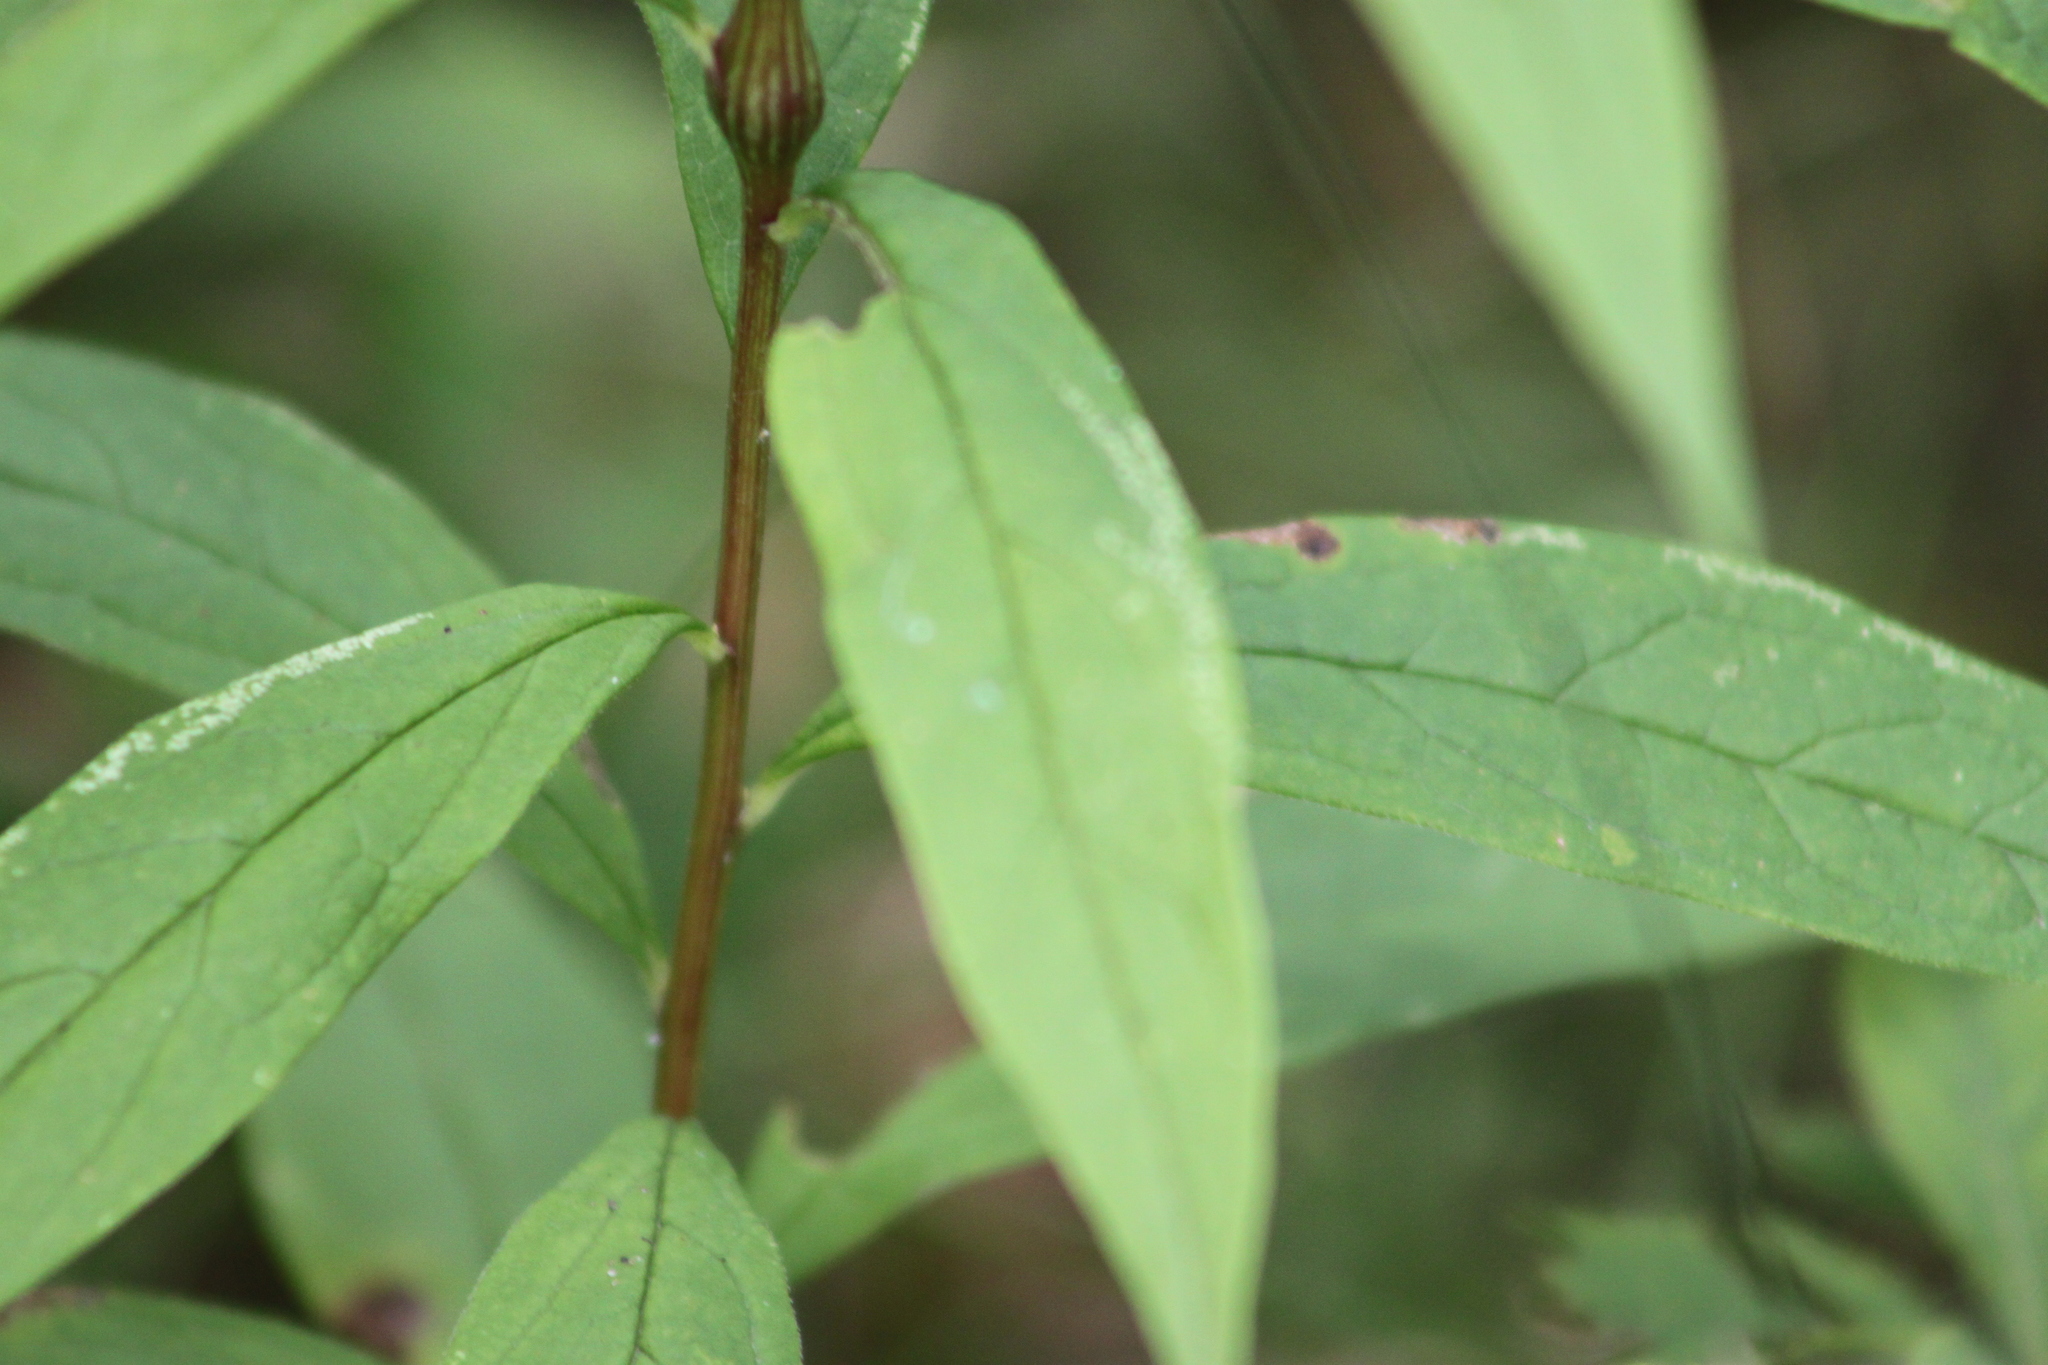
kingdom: Plantae
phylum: Tracheophyta
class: Magnoliopsida
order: Asterales
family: Asteraceae
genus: Doellingeria
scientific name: Doellingeria umbellata
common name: Flat-top white aster
